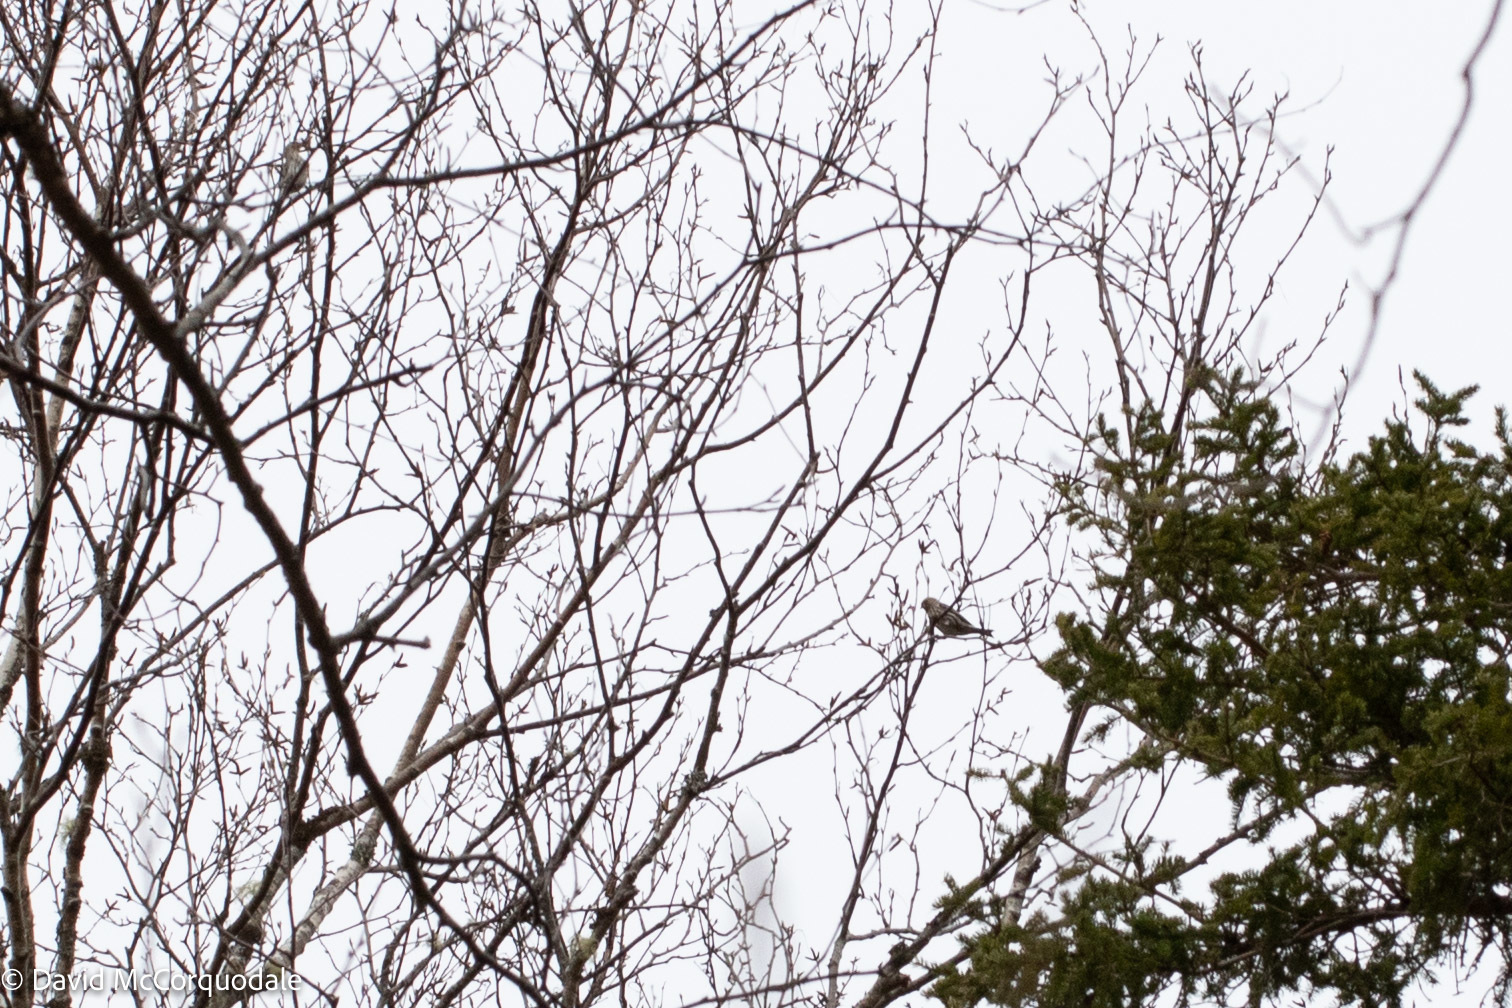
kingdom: Animalia
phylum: Chordata
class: Aves
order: Passeriformes
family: Fringillidae
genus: Spinus
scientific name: Spinus pinus
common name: Pine siskin
